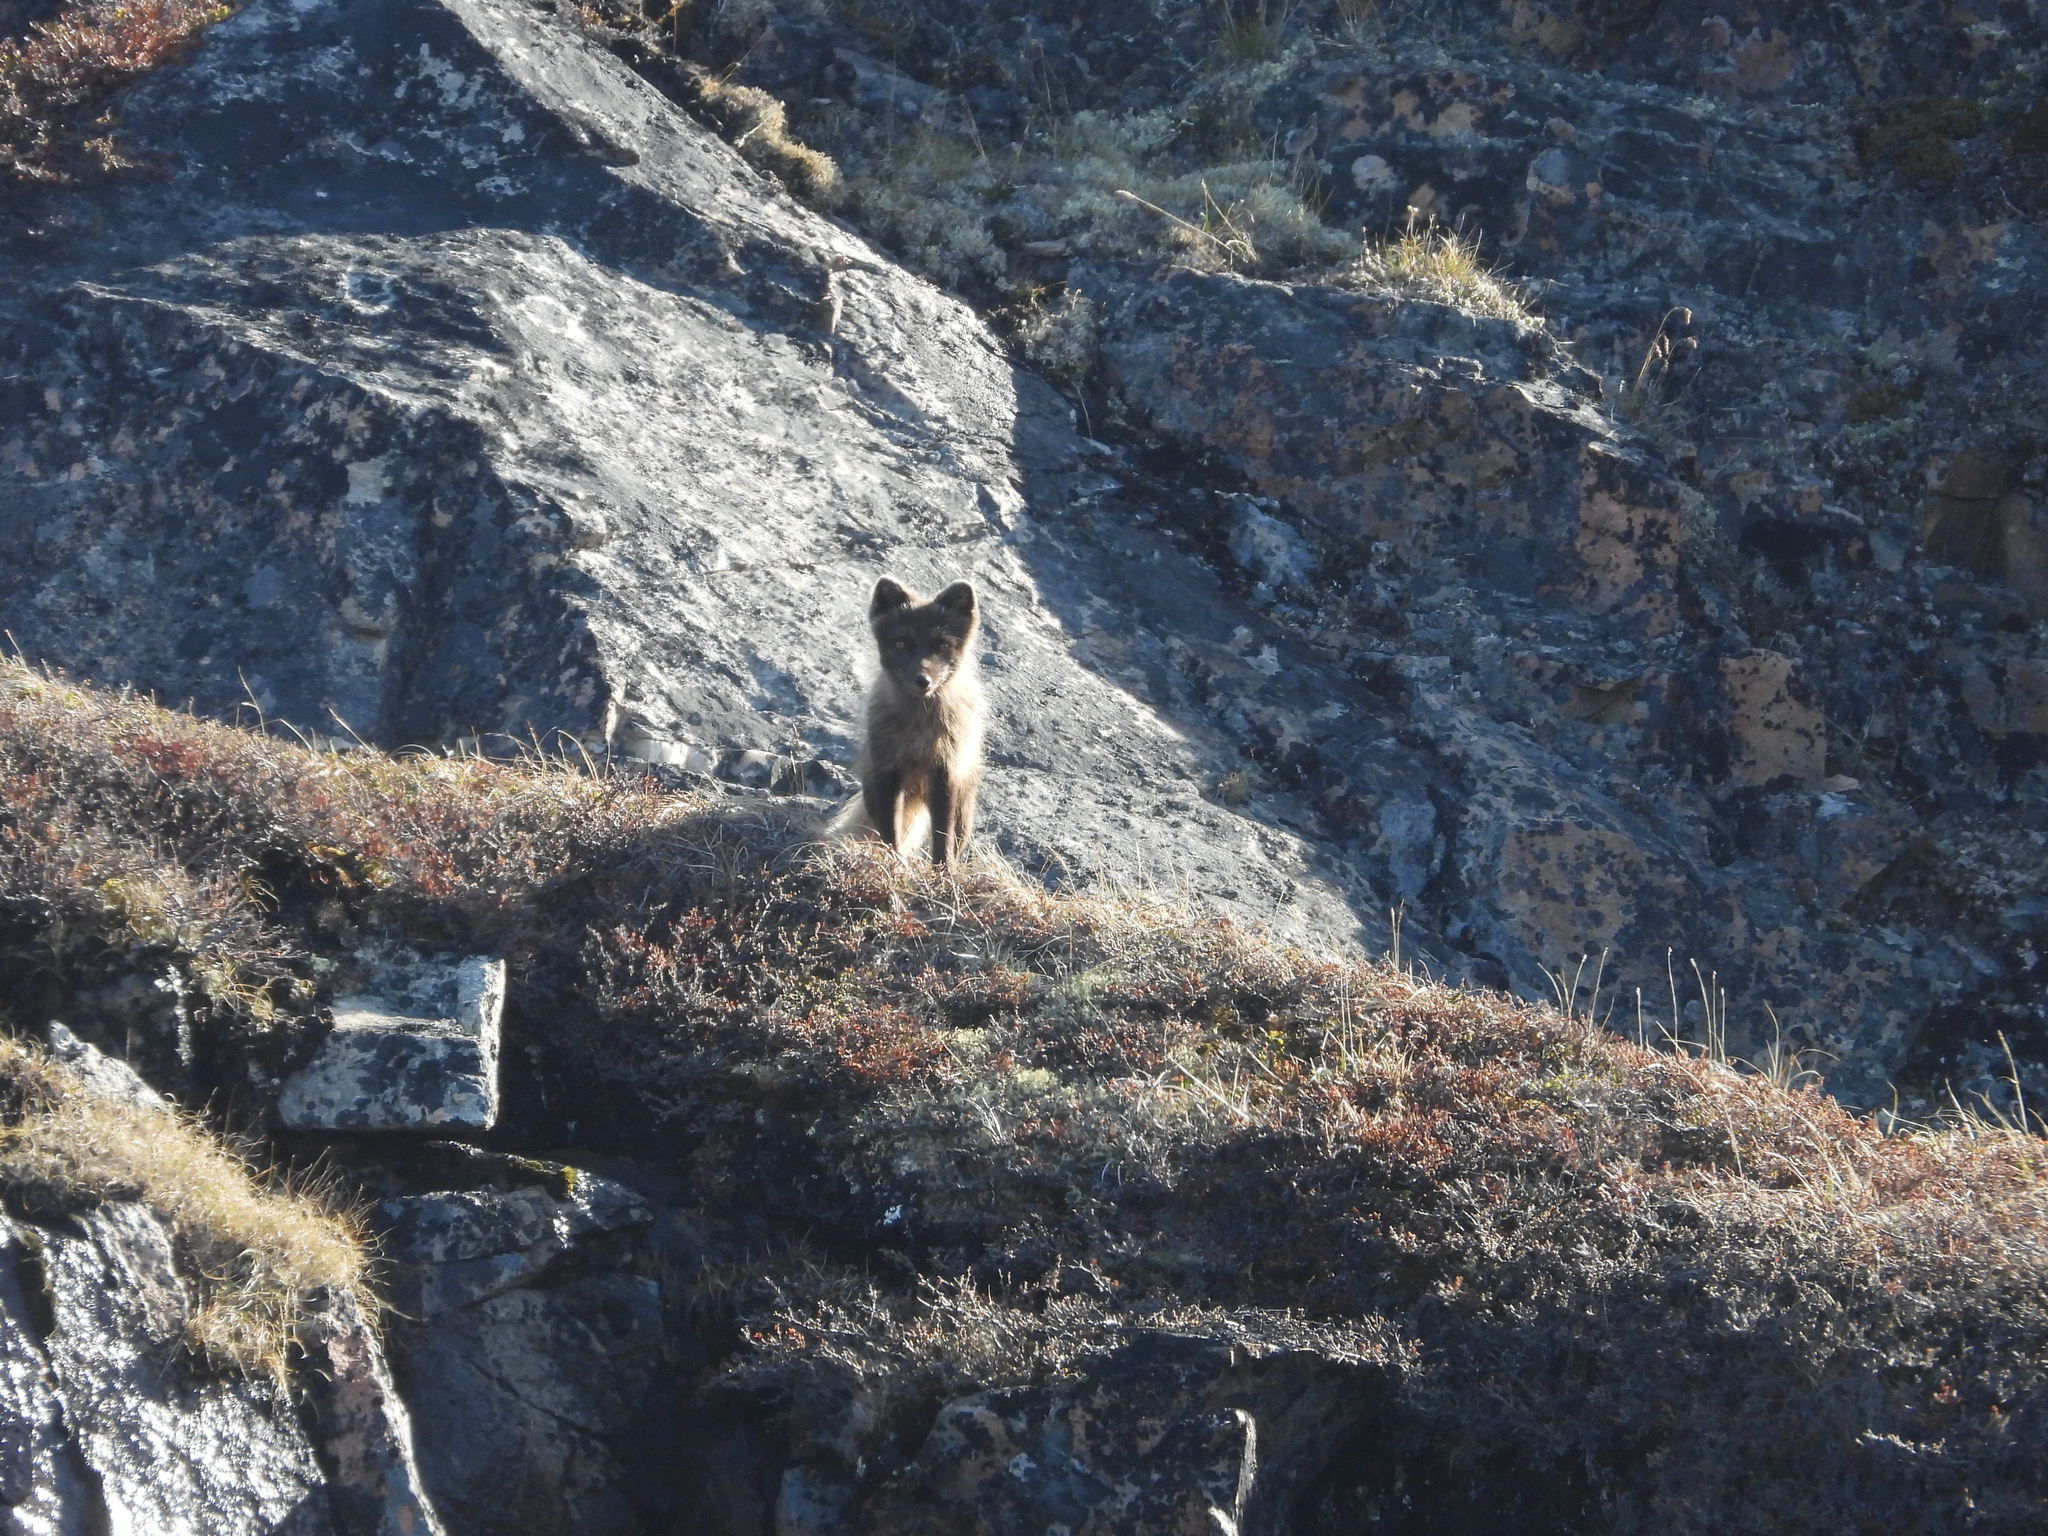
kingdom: Animalia
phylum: Chordata
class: Mammalia
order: Carnivora
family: Canidae
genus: Vulpes
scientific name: Vulpes lagopus
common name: Arctic fox
